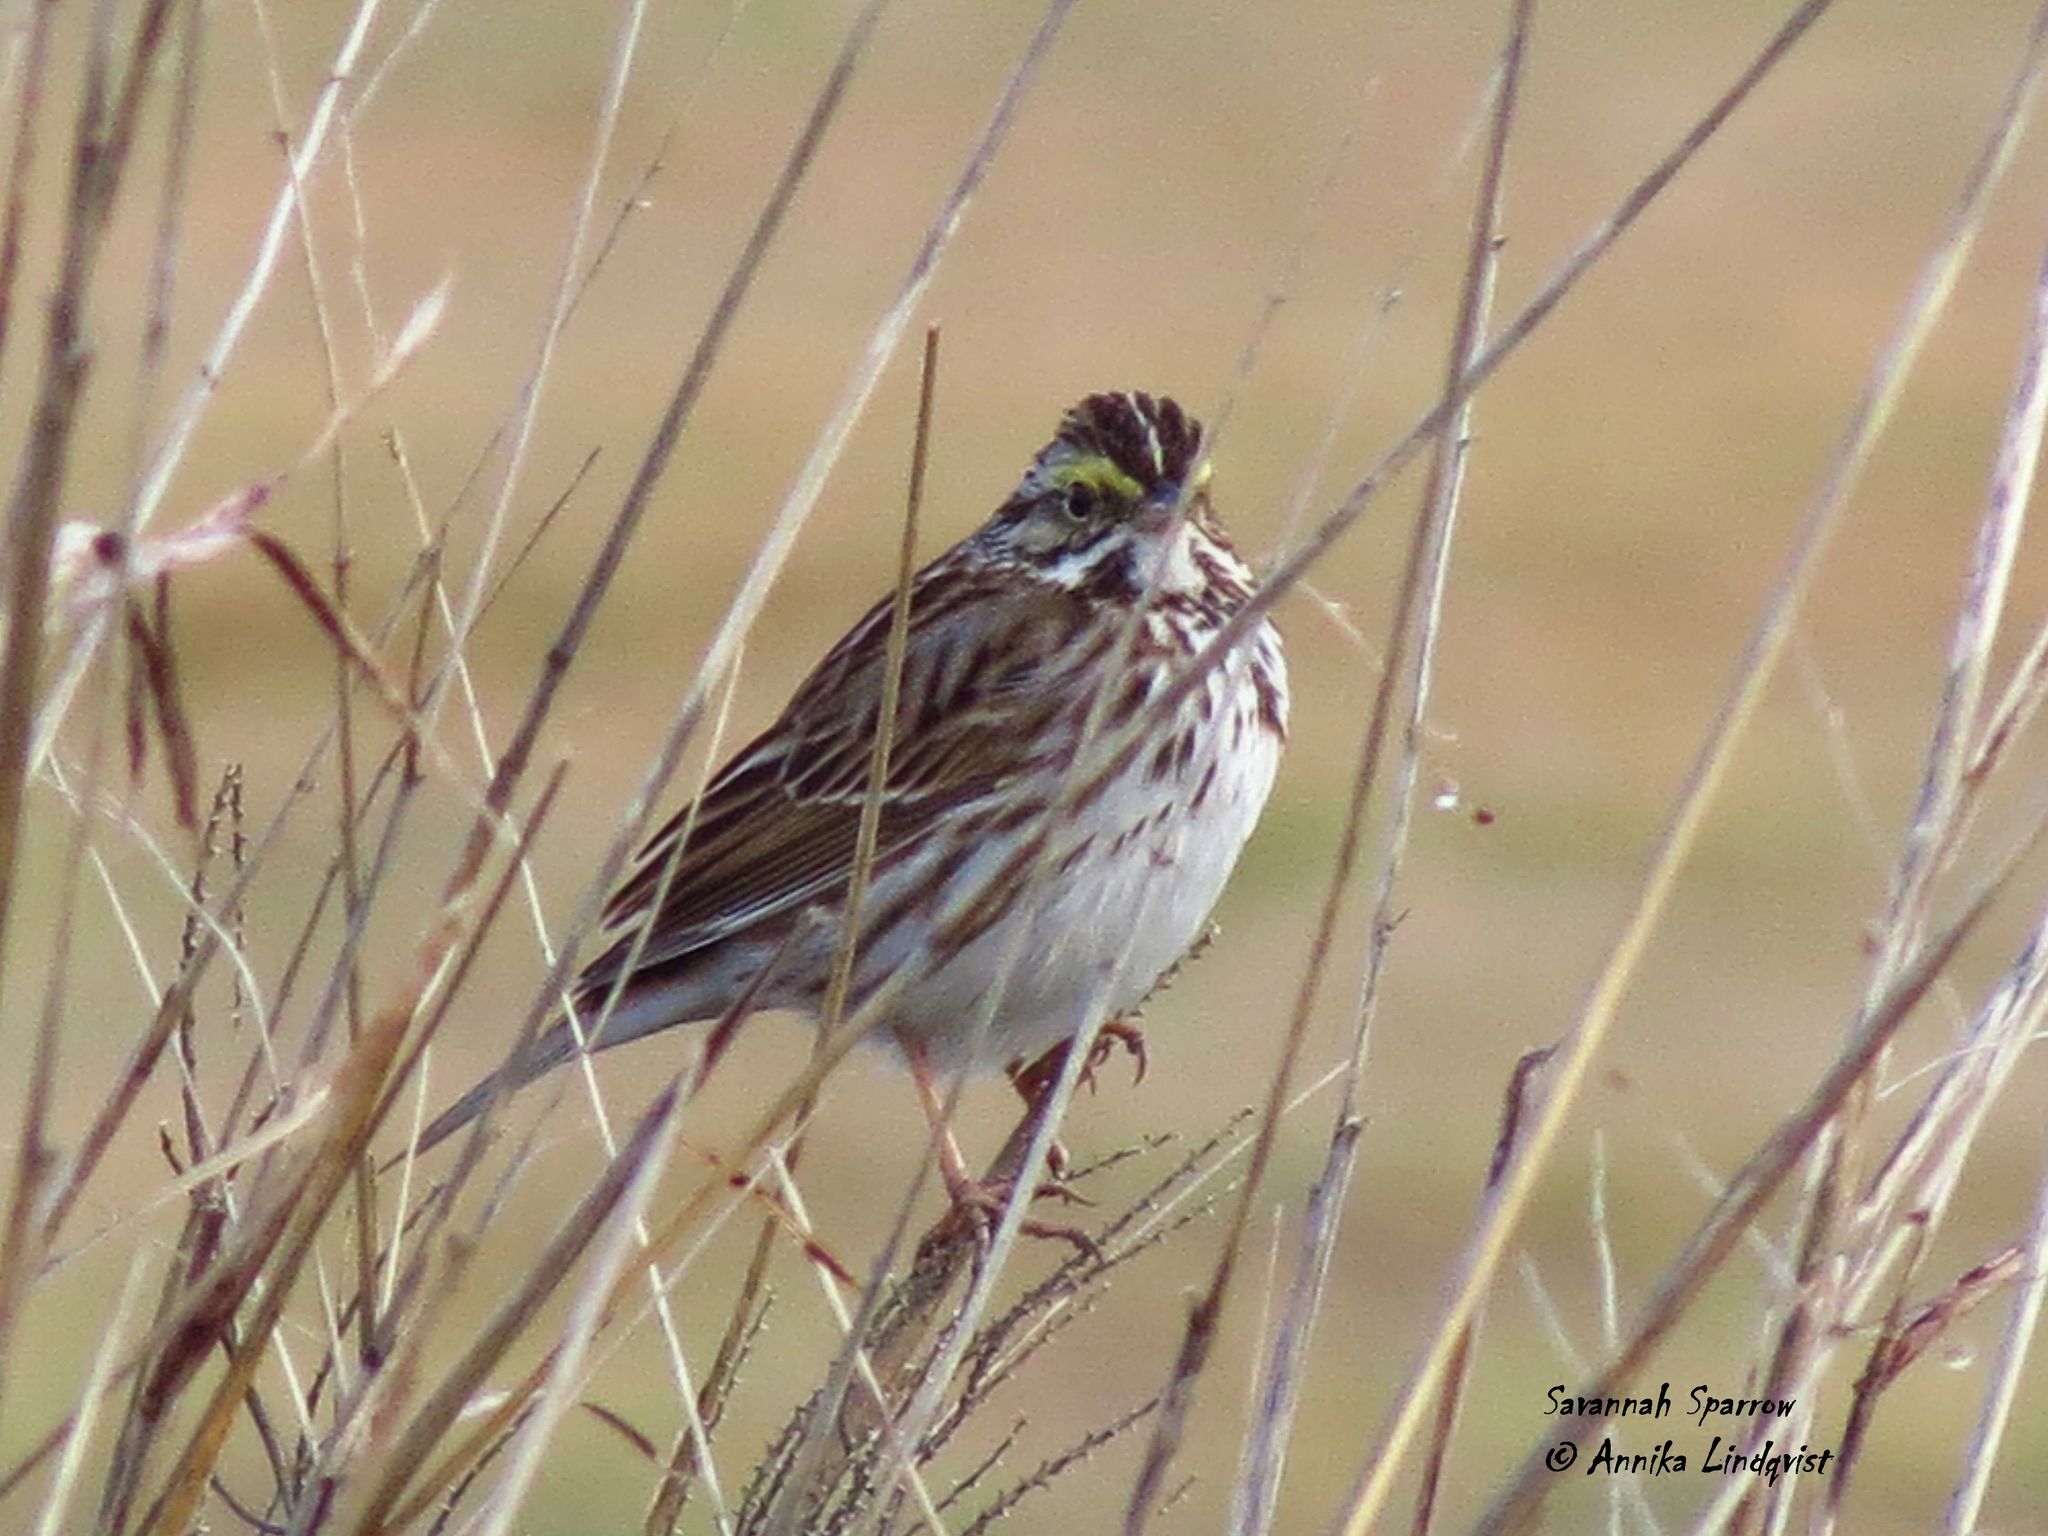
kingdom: Animalia
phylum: Chordata
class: Aves
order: Passeriformes
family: Passerellidae
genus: Passerculus
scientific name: Passerculus sandwichensis
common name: Savannah sparrow
